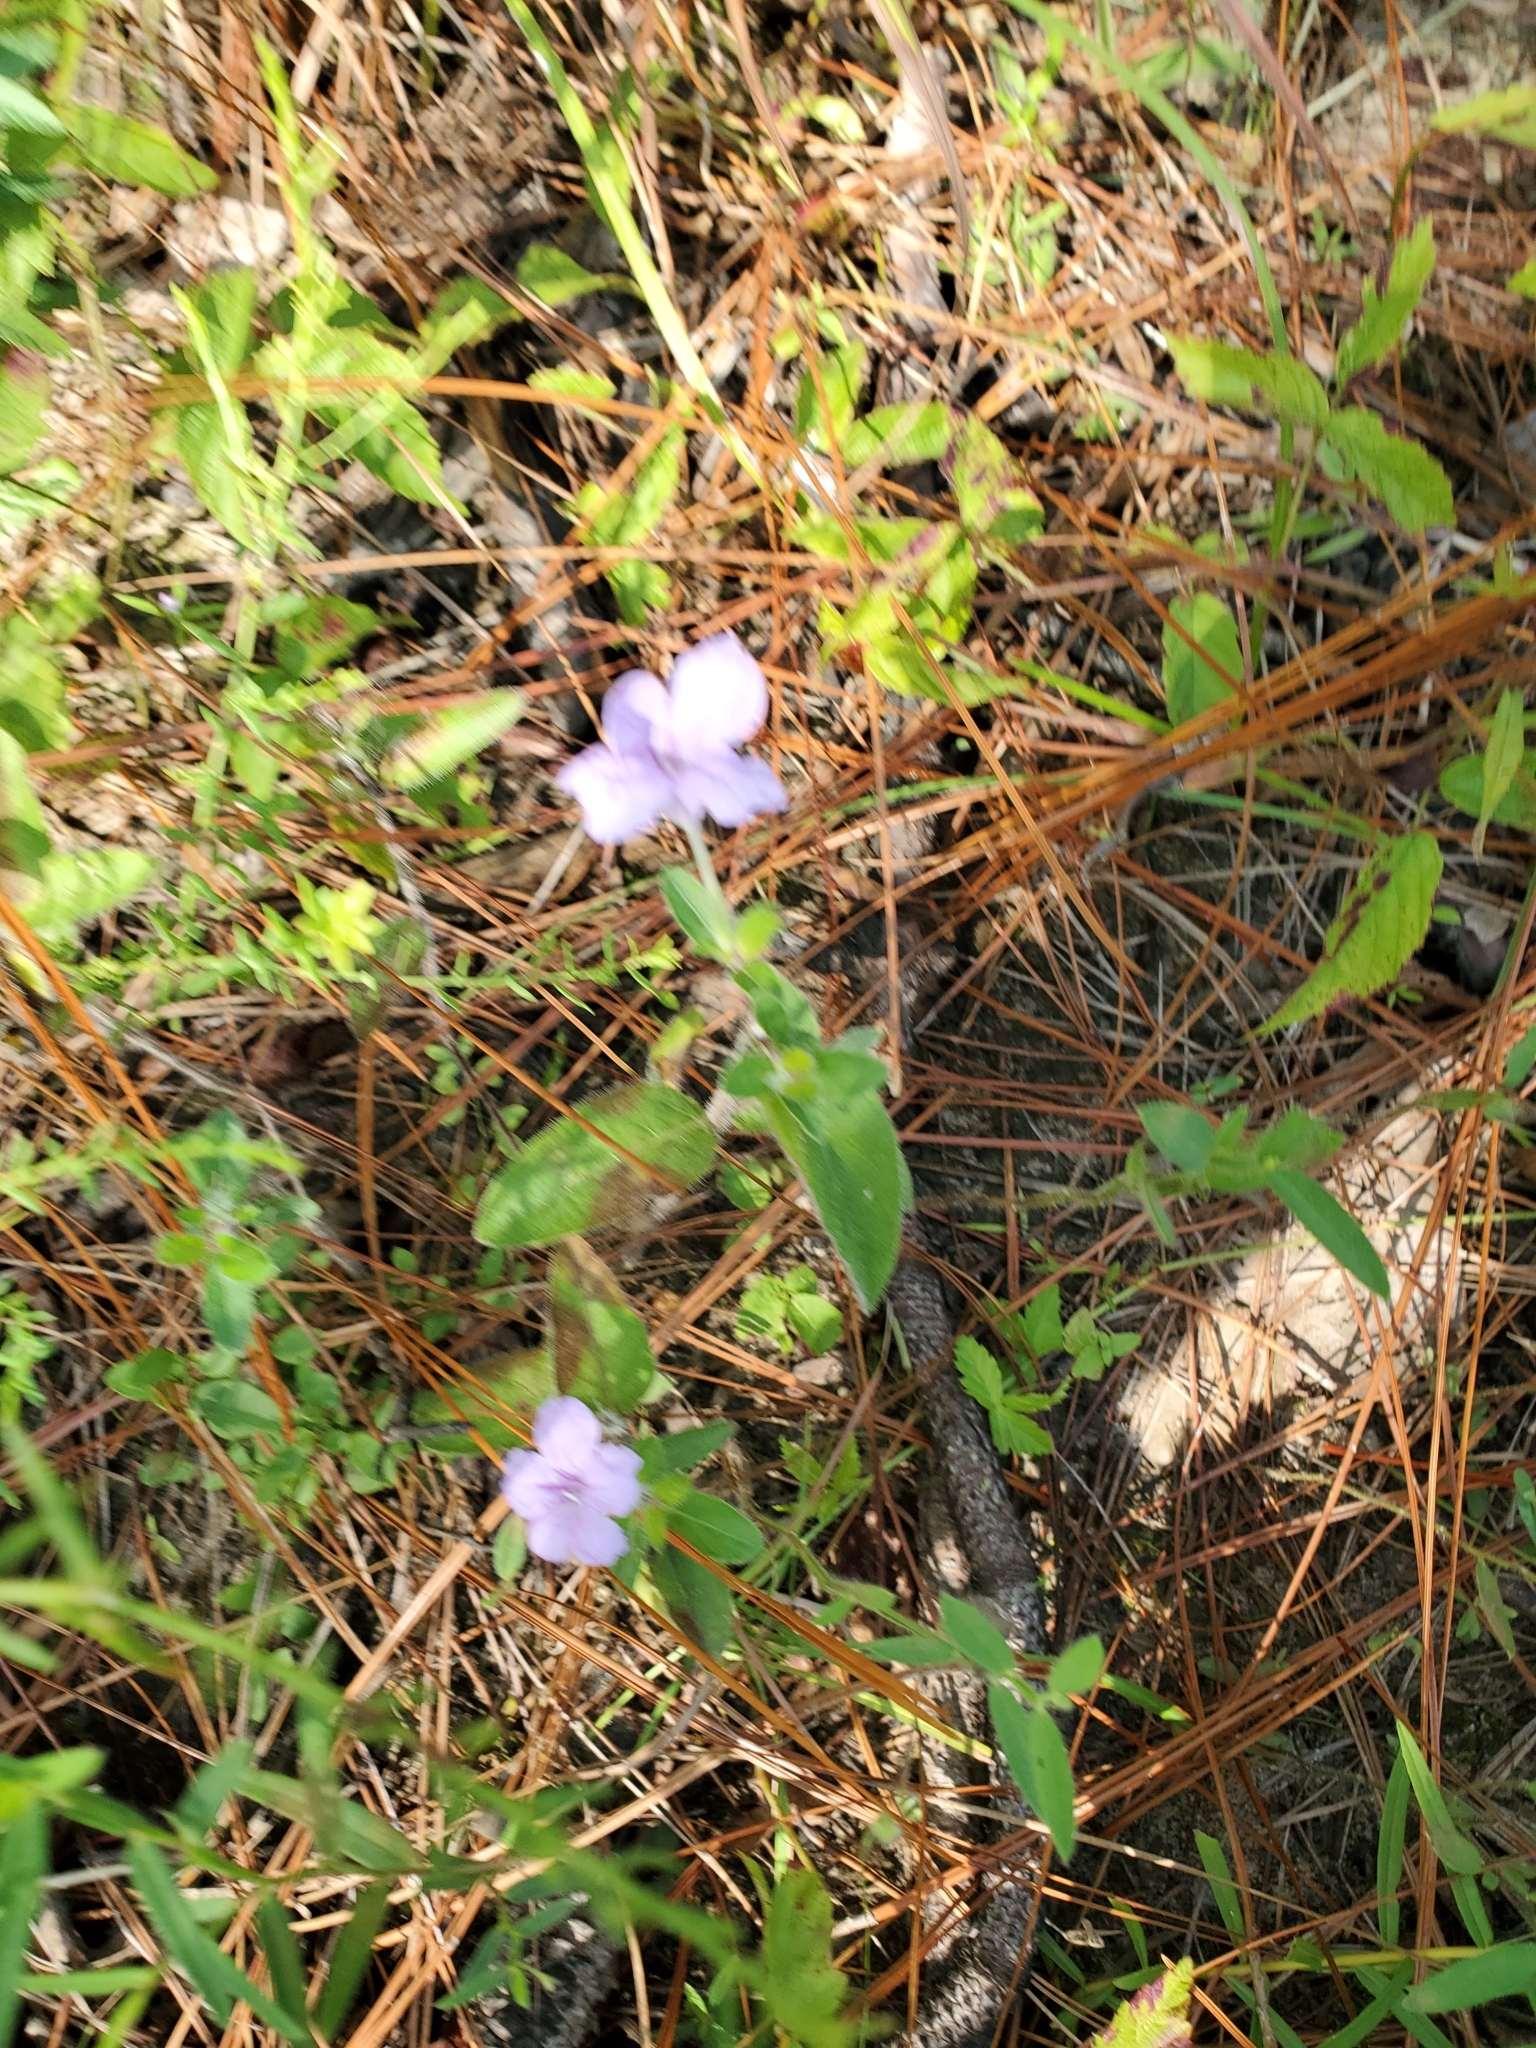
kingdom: Plantae
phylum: Tracheophyta
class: Magnoliopsida
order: Lamiales
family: Acanthaceae
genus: Ruellia
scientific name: Ruellia humilis
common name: Fringe-leaf ruellia
